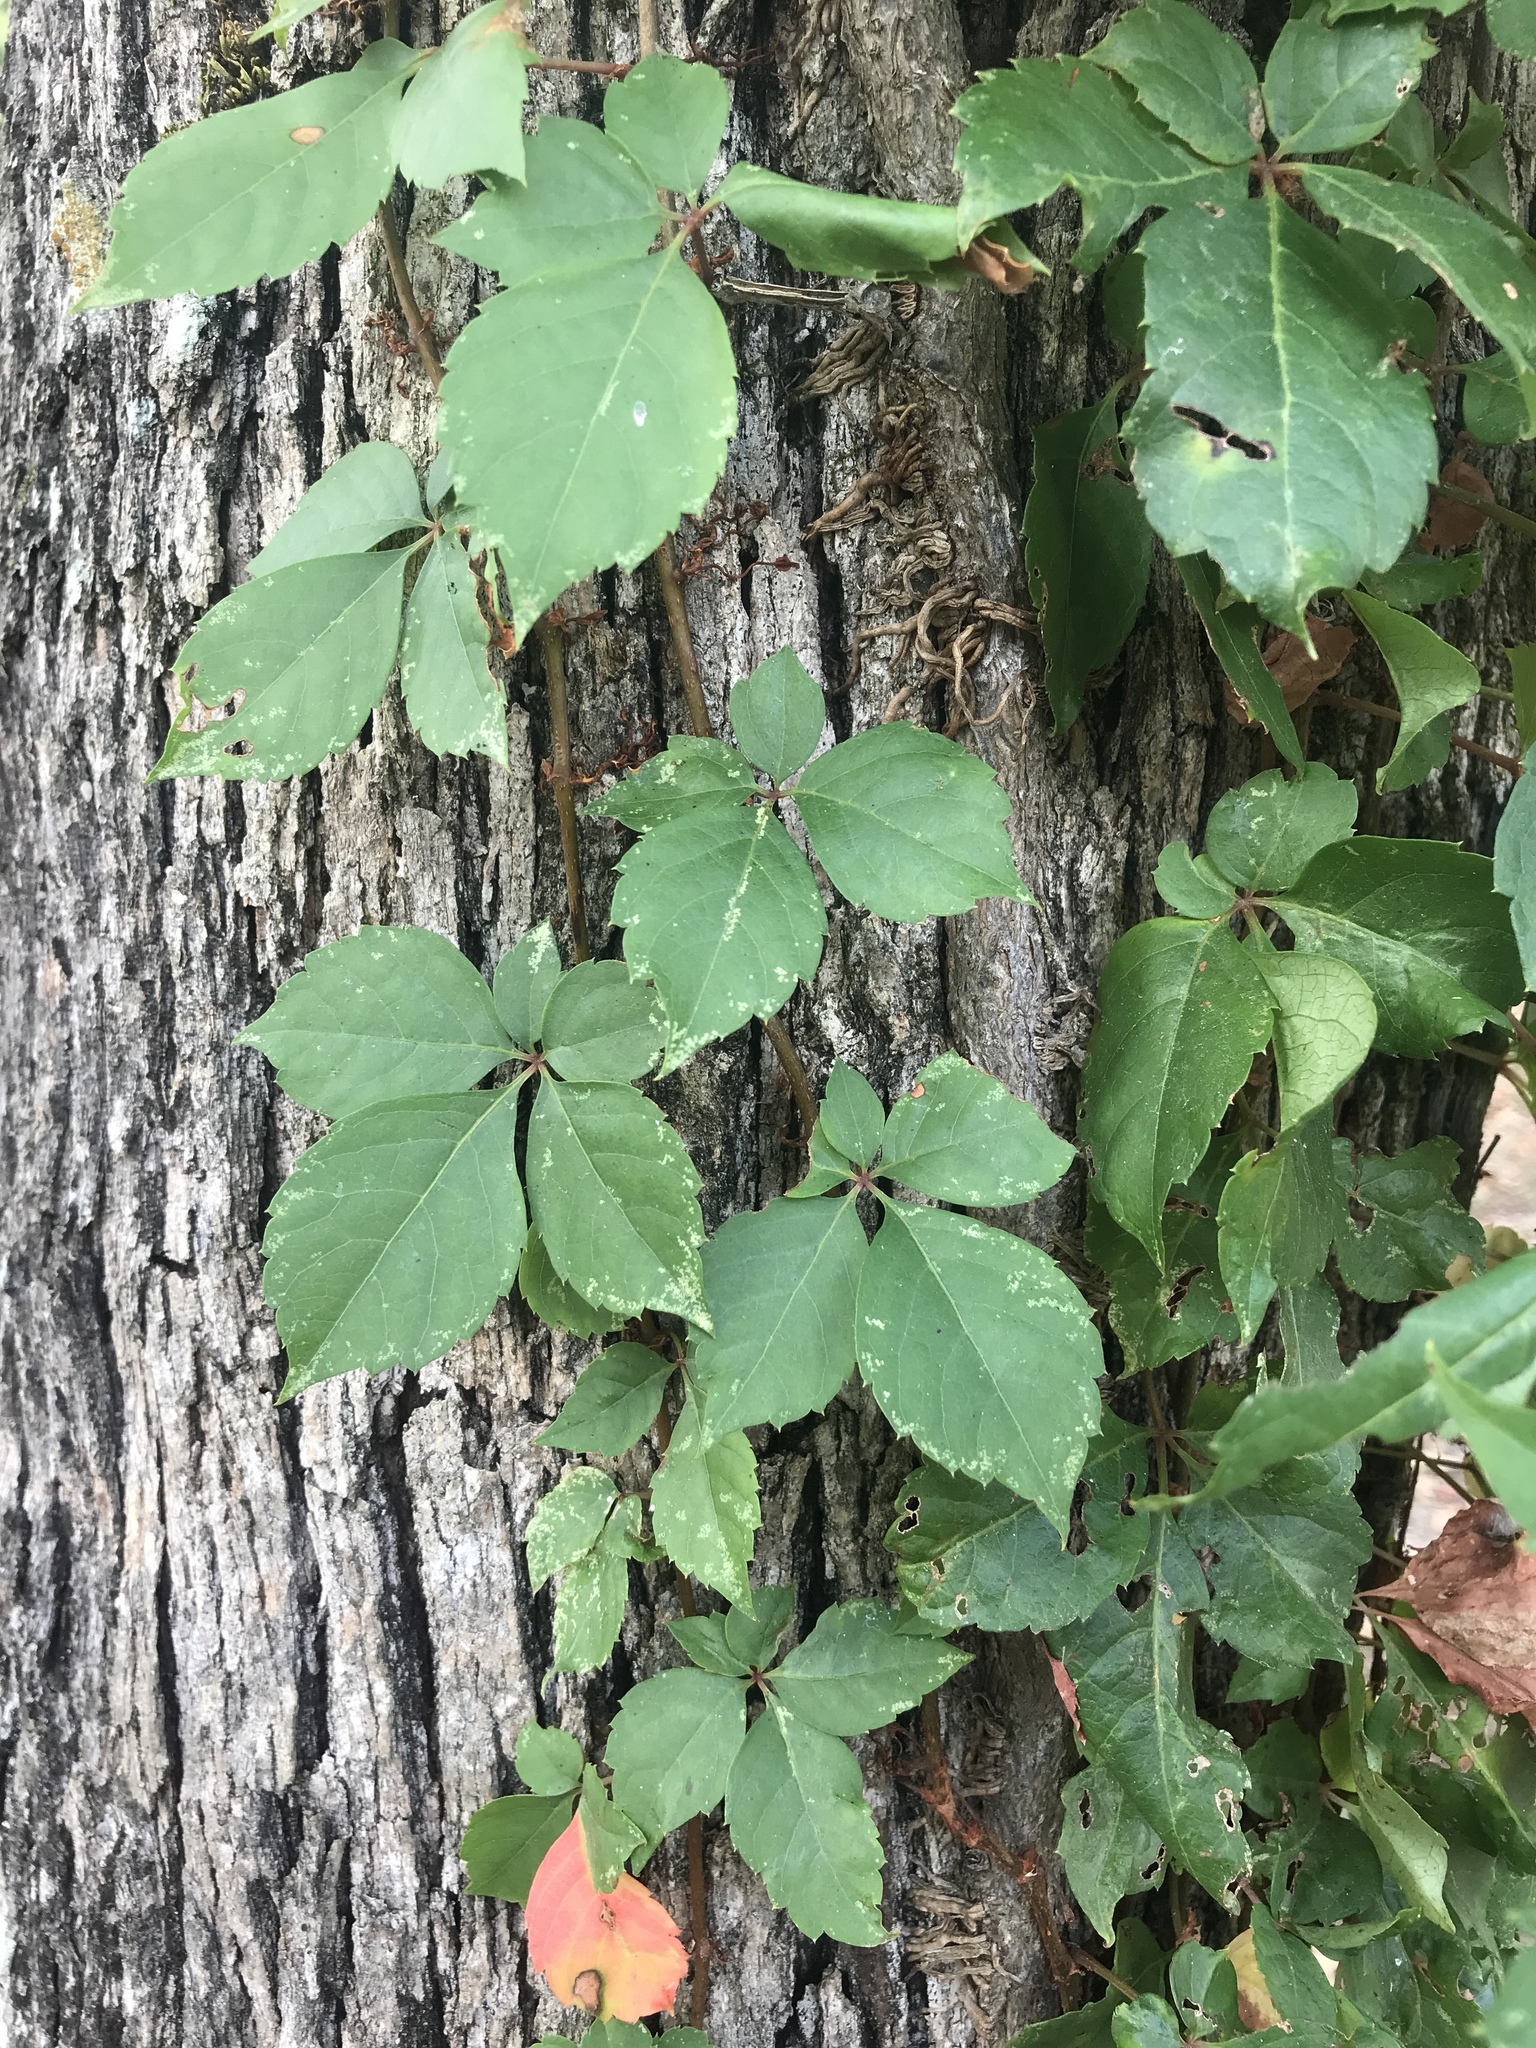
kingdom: Plantae
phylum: Tracheophyta
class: Magnoliopsida
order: Vitales
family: Vitaceae
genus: Parthenocissus
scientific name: Parthenocissus quinquefolia
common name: Virginia-creeper
